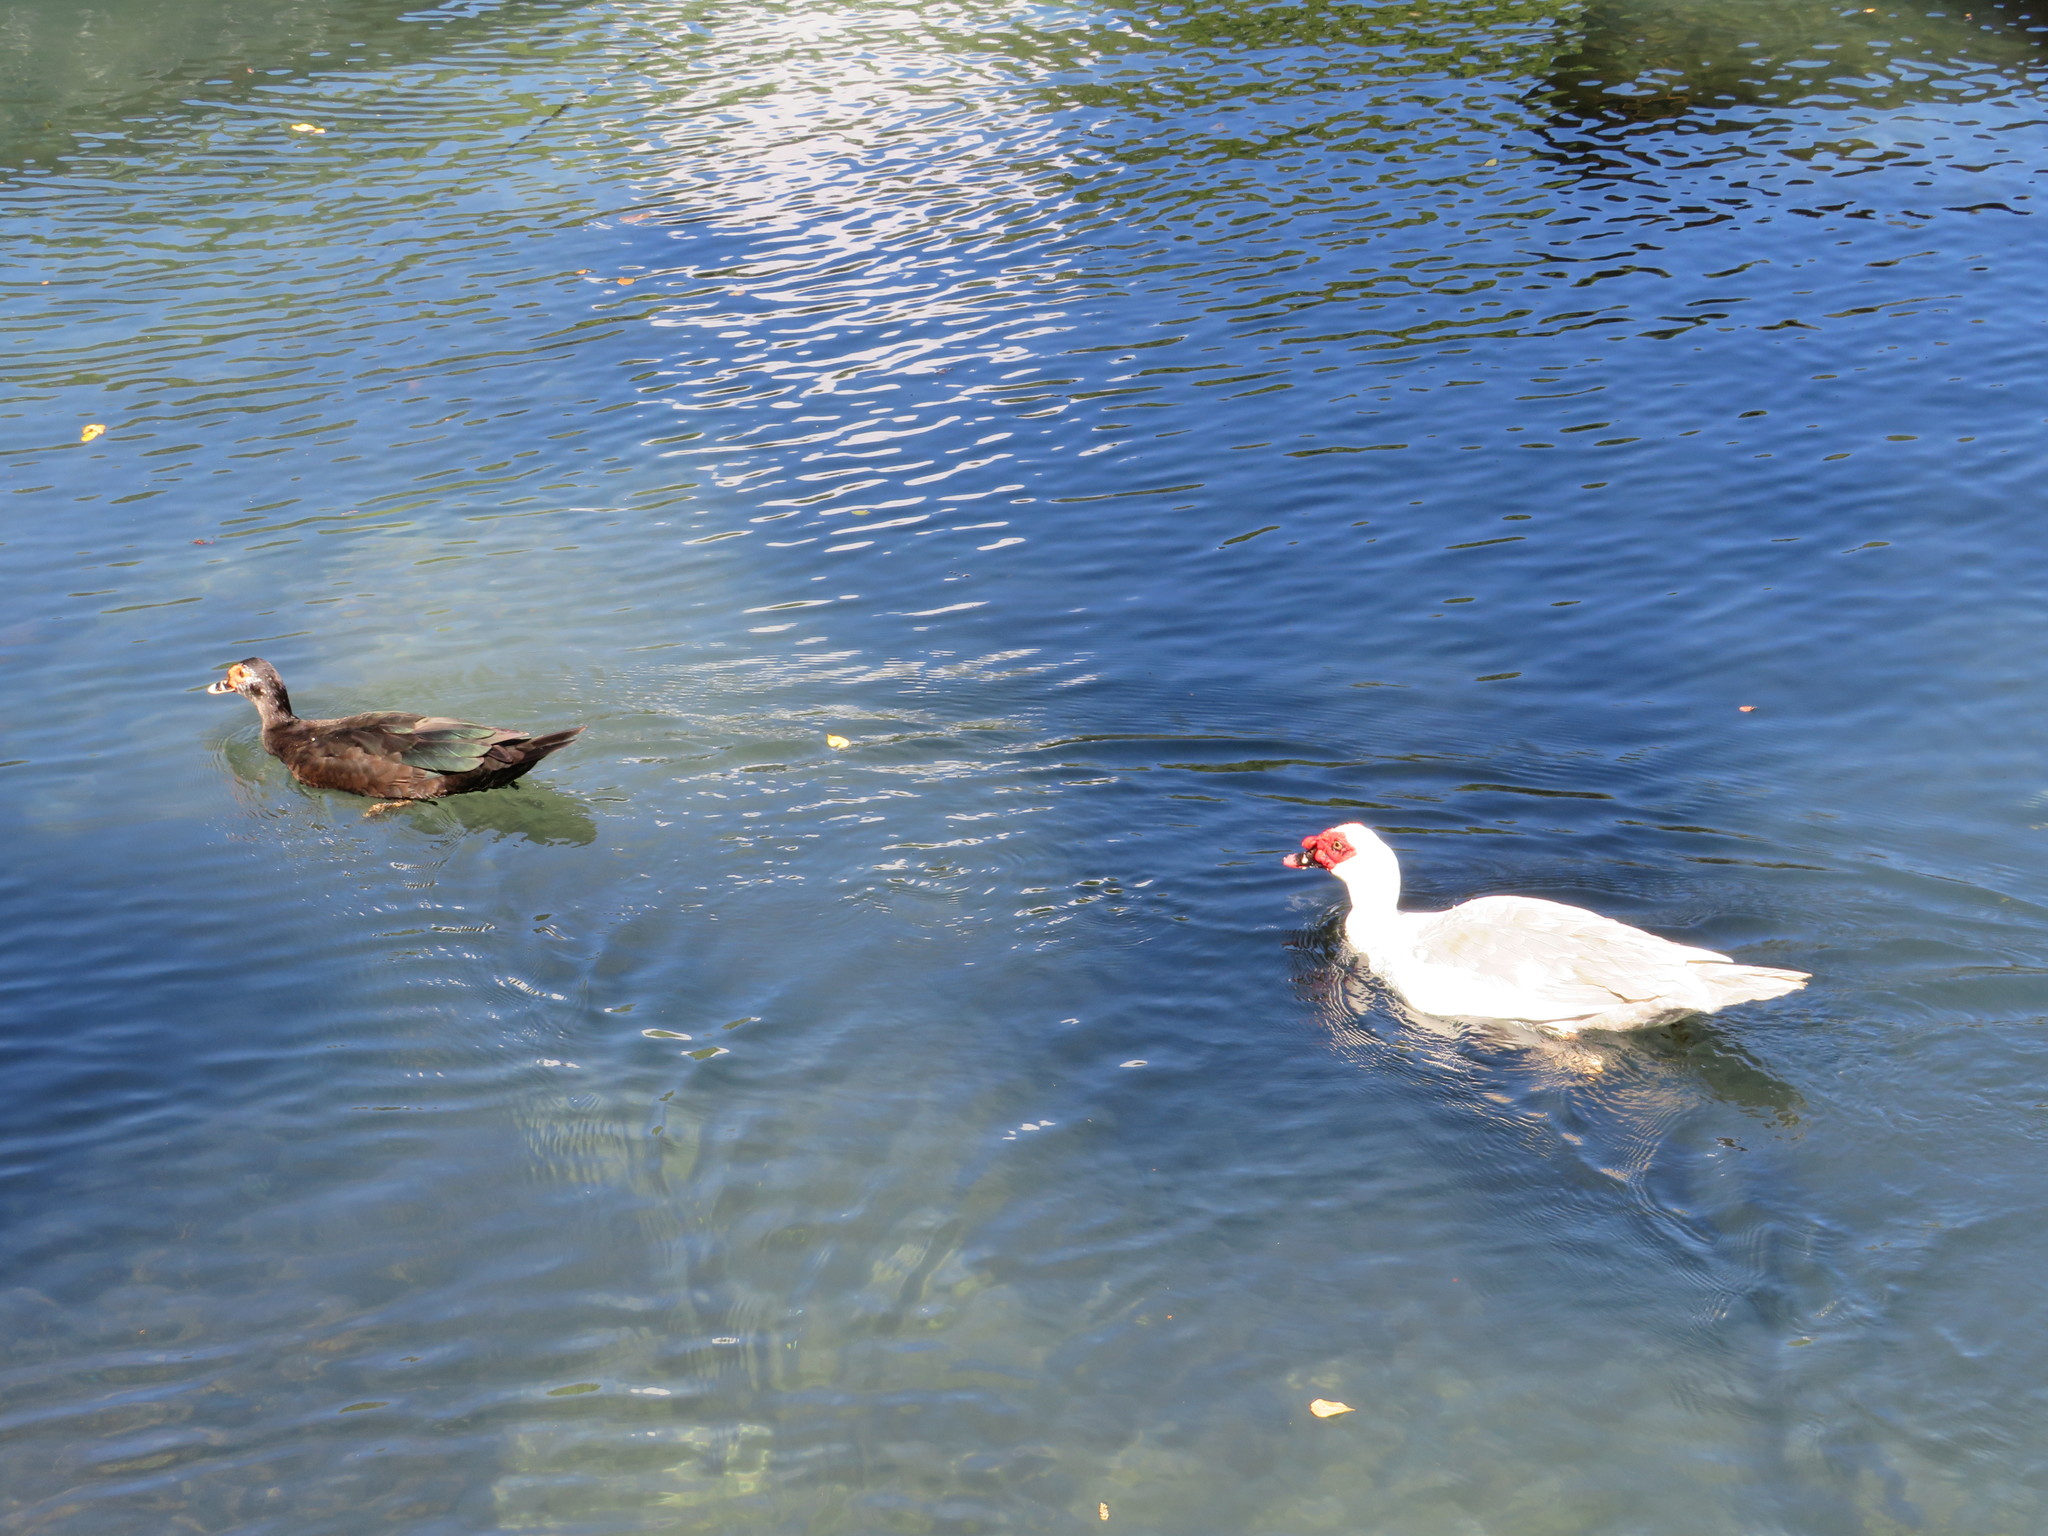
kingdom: Animalia
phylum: Chordata
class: Aves
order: Anseriformes
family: Anatidae
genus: Cairina
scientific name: Cairina moschata
